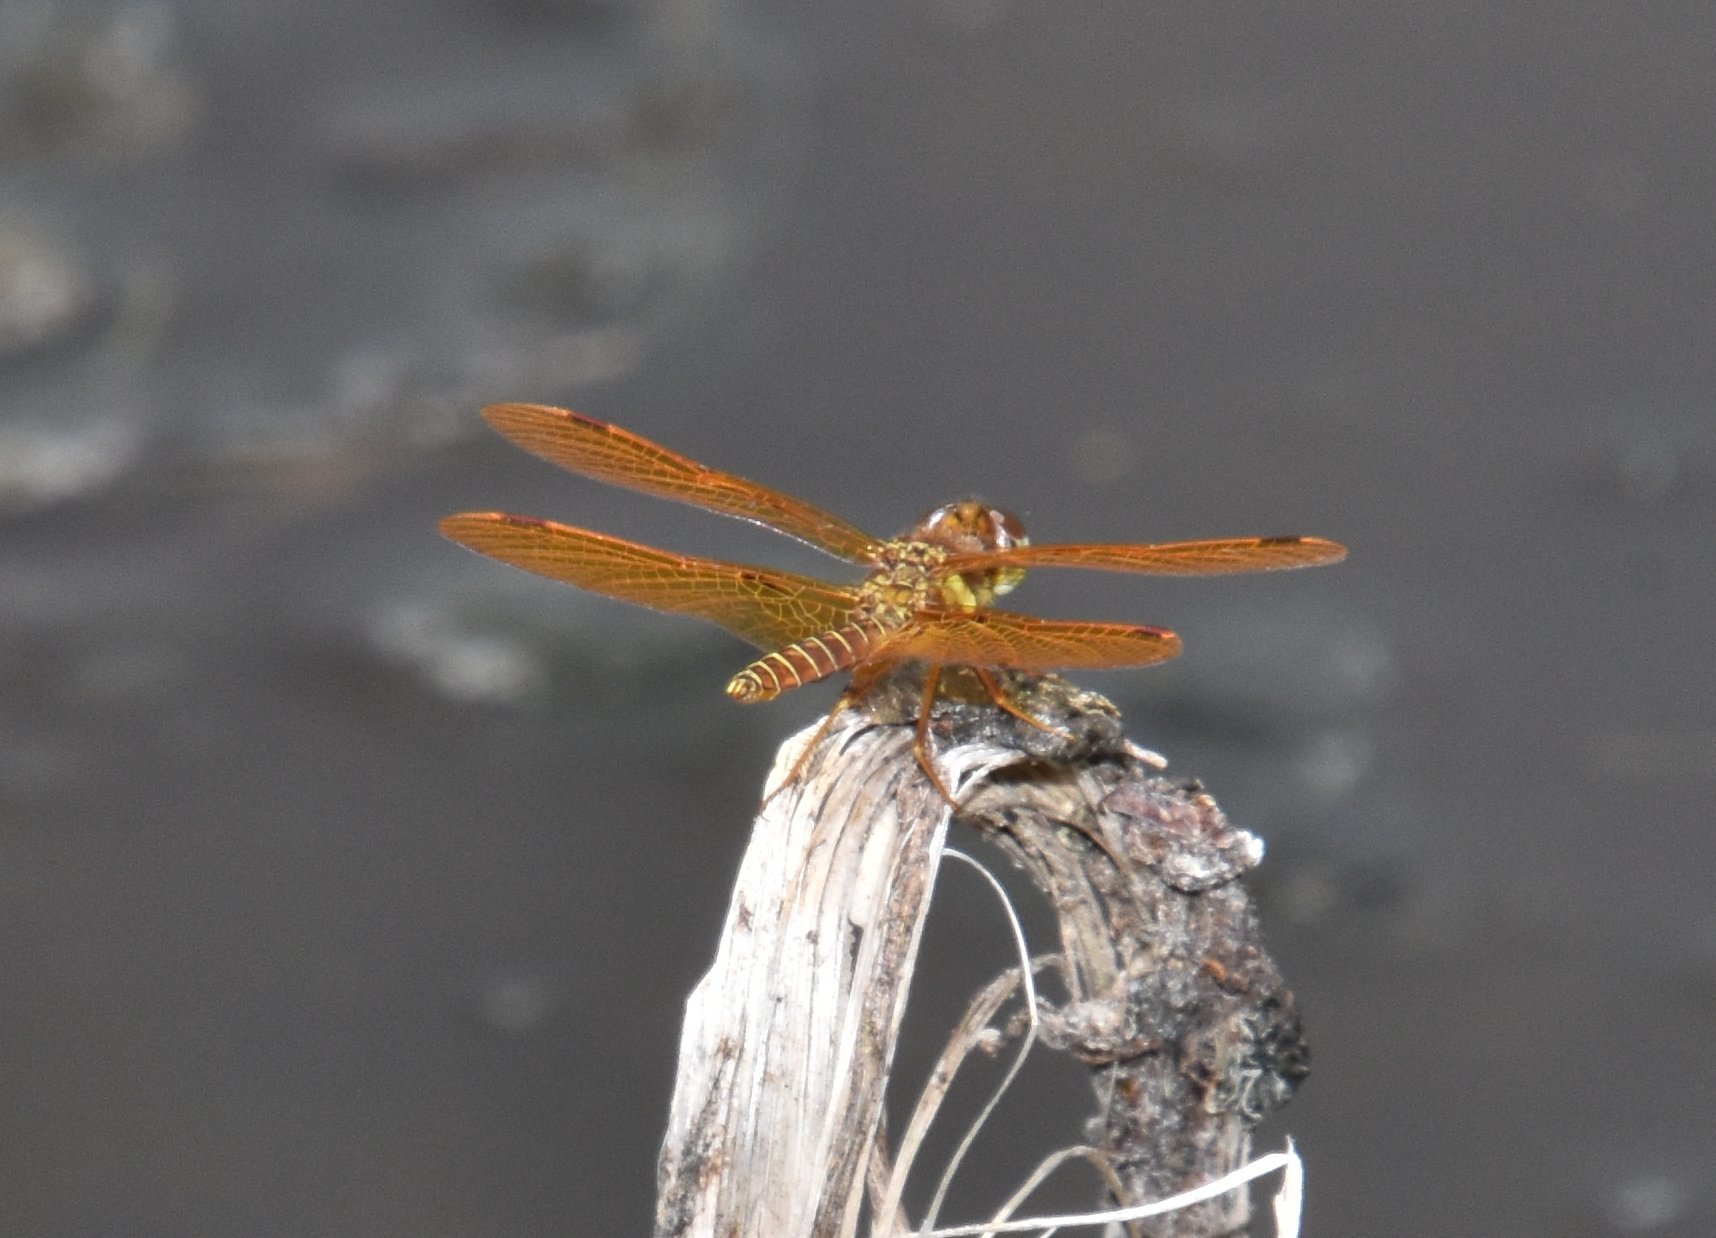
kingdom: Animalia
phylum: Arthropoda
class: Insecta
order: Odonata
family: Libellulidae
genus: Perithemis
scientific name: Perithemis tenera
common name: Eastern amberwing
